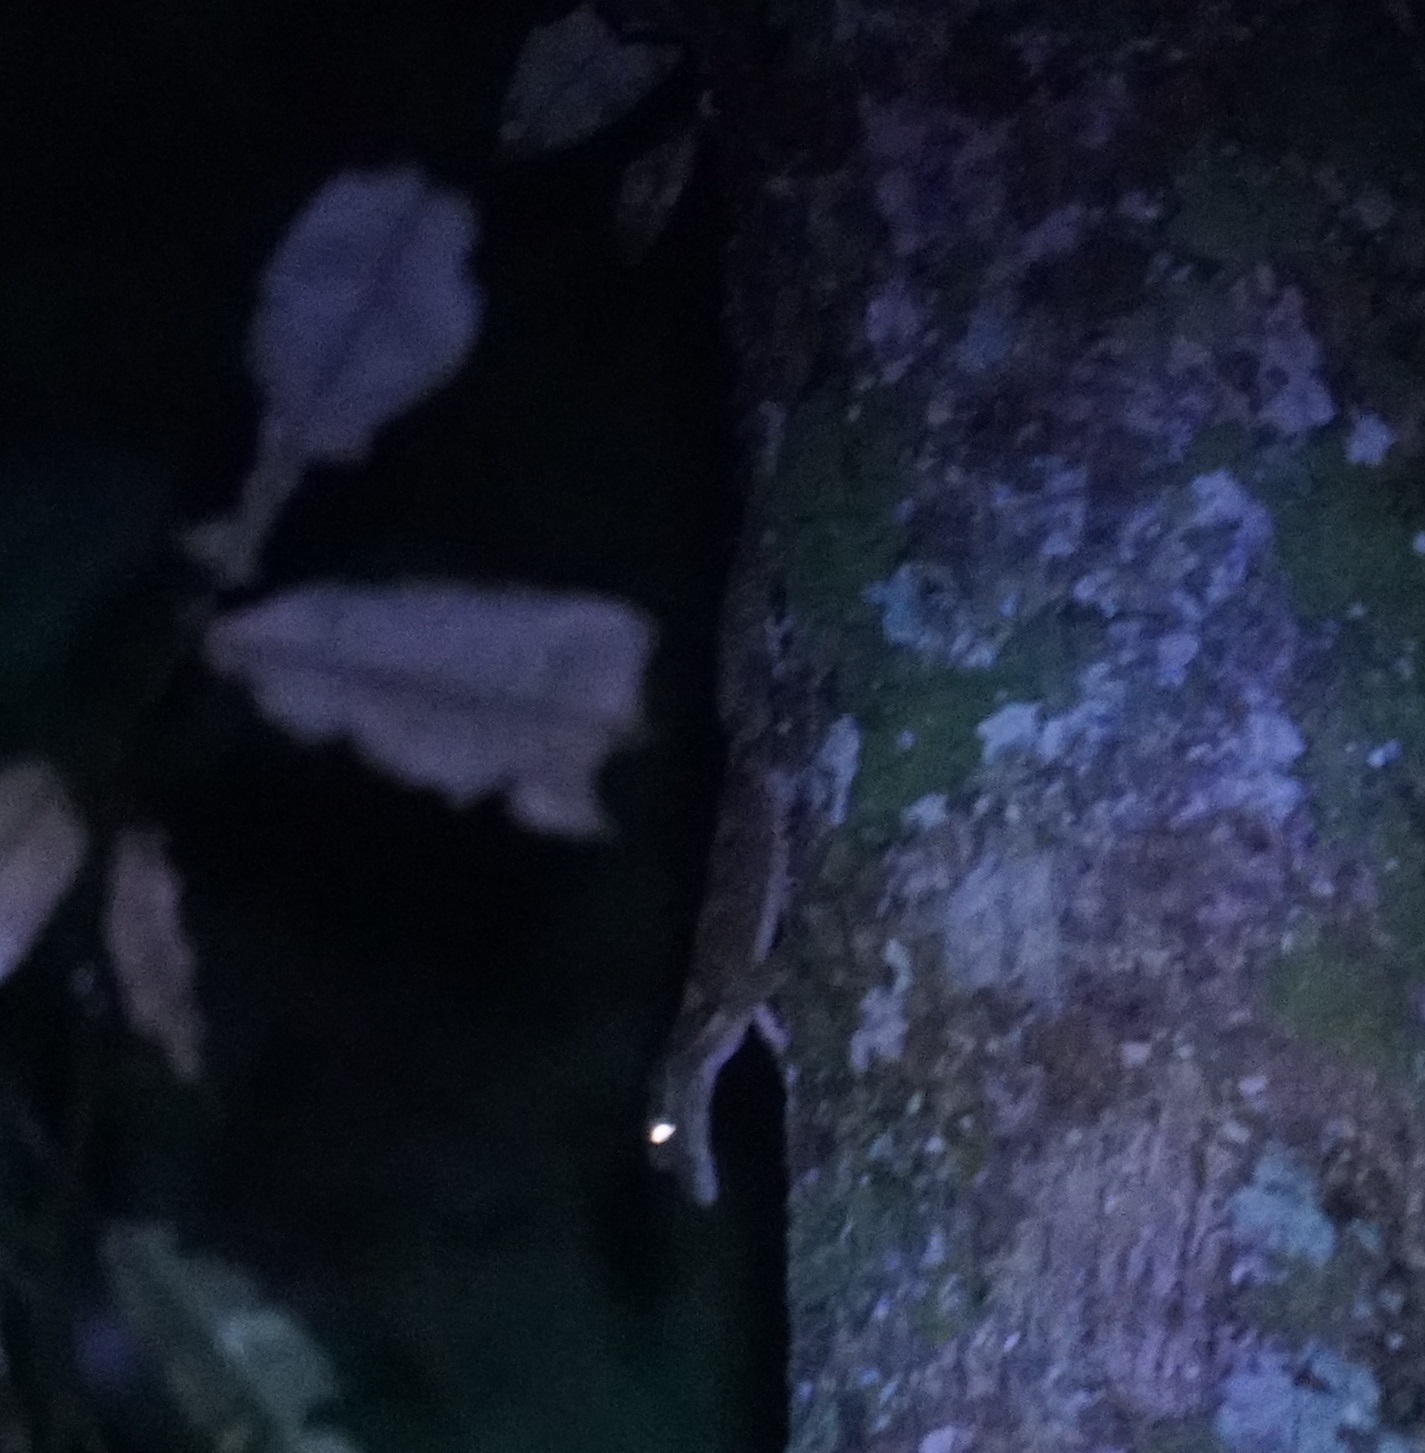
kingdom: Animalia
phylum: Chordata
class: Squamata
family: Carphodactylidae
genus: Saltuarius
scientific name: Saltuarius cornutus
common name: Leaf-tailed gecko
